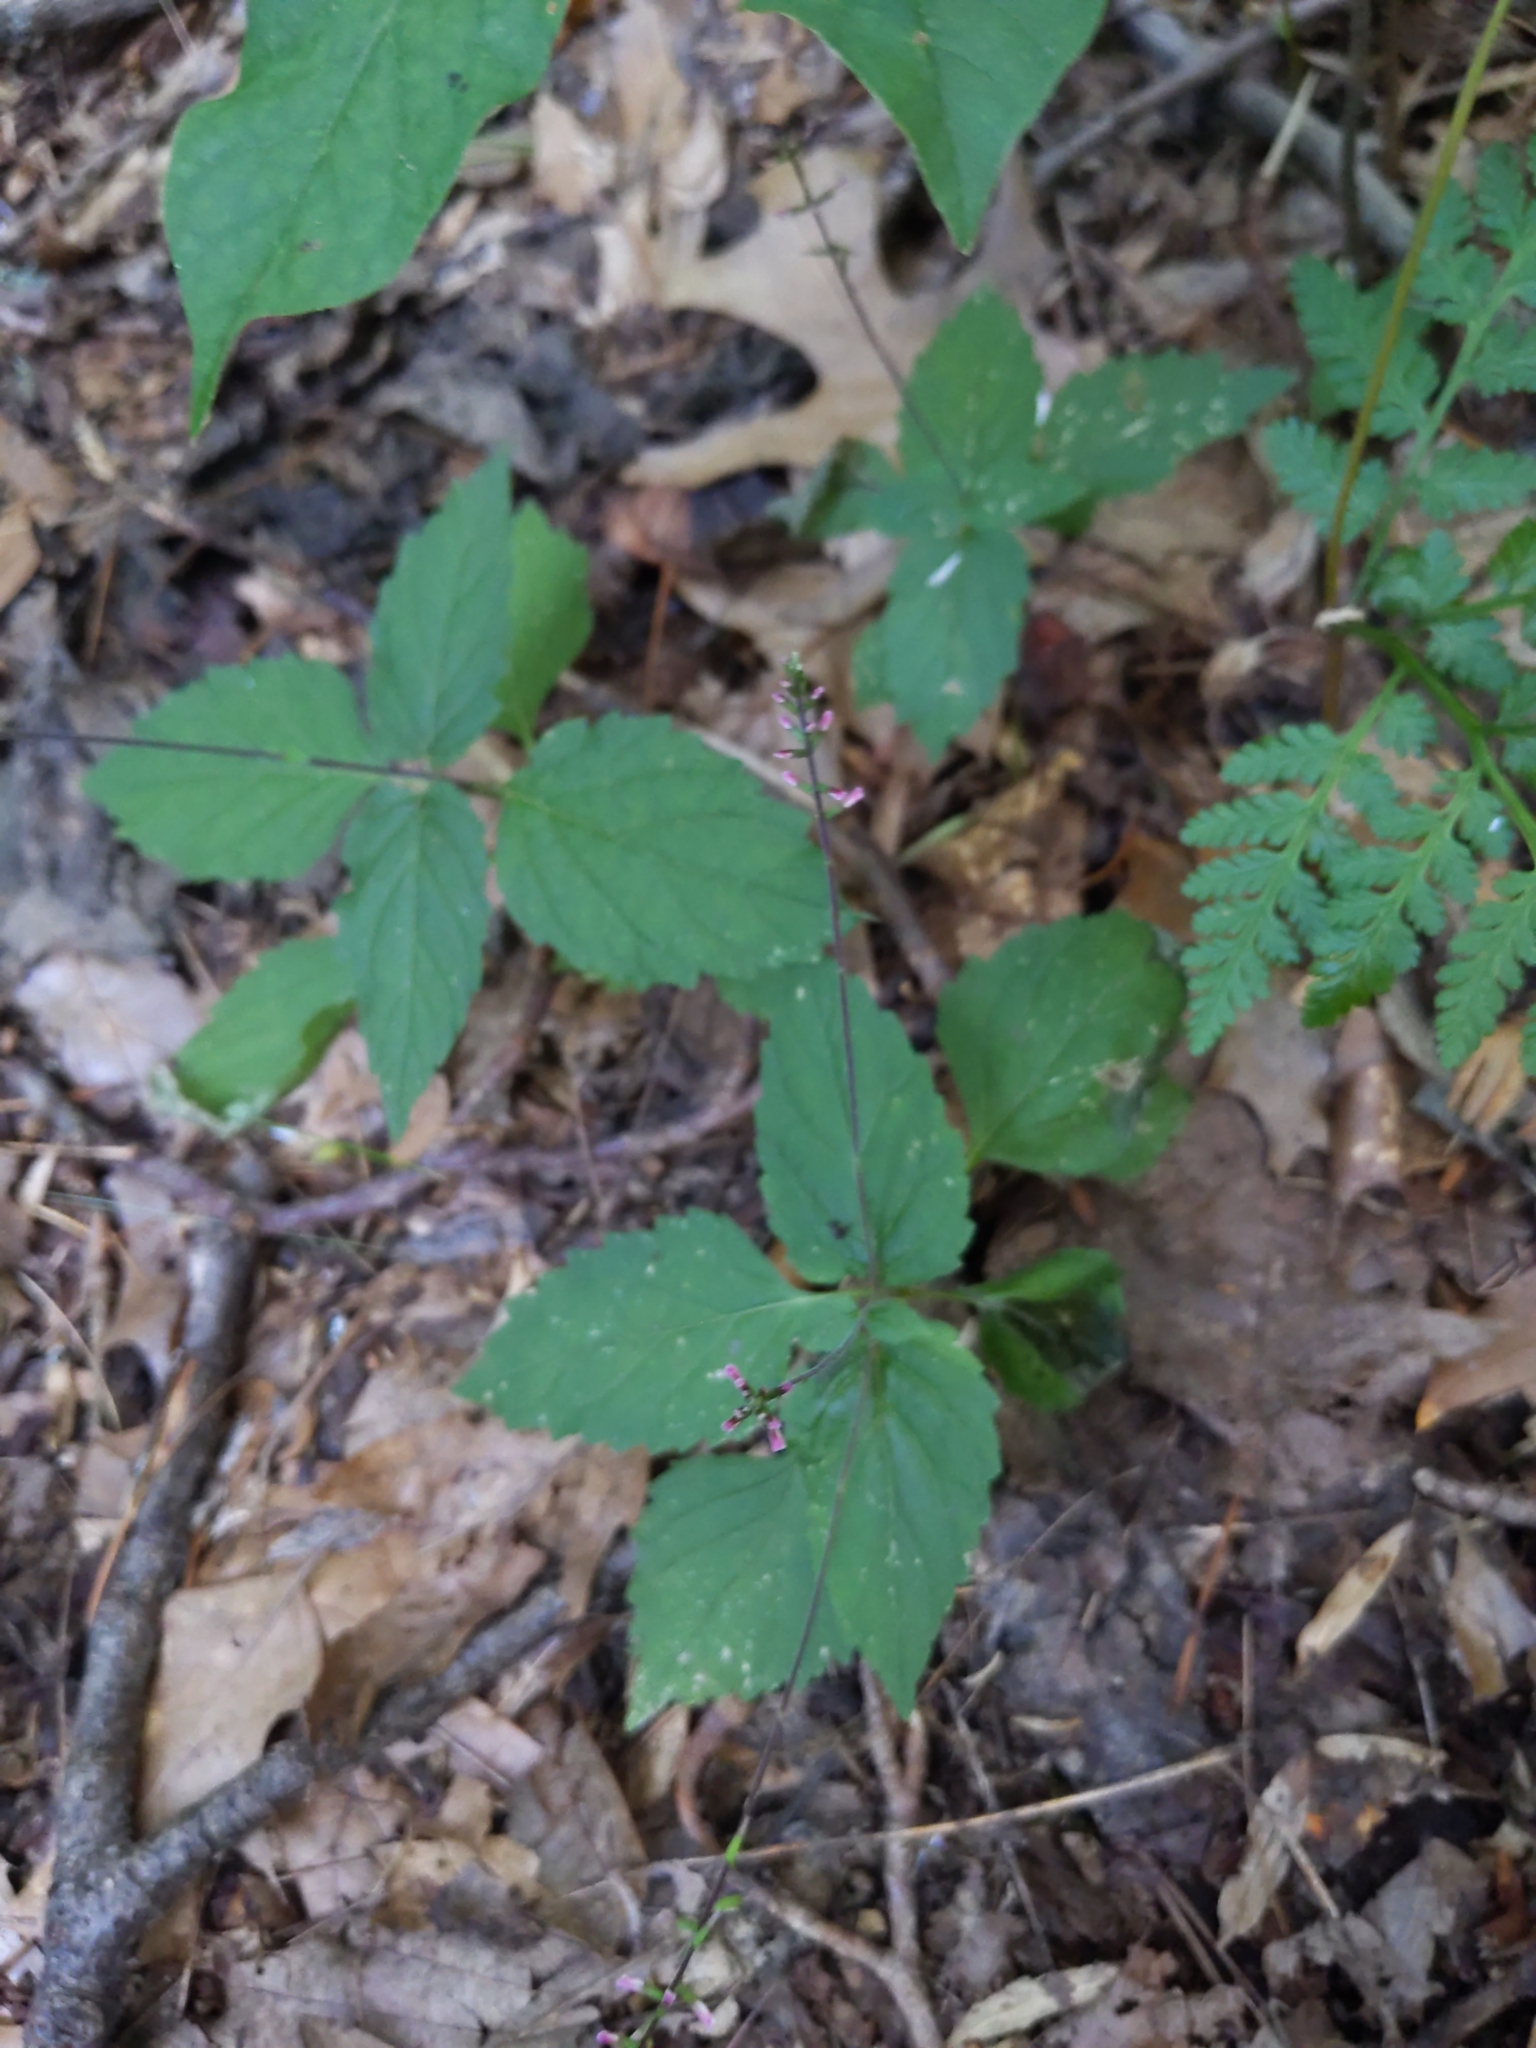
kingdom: Plantae
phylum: Tracheophyta
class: Magnoliopsida
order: Lamiales
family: Phrymaceae
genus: Phryma
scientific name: Phryma leptostachya
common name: American lopseed
